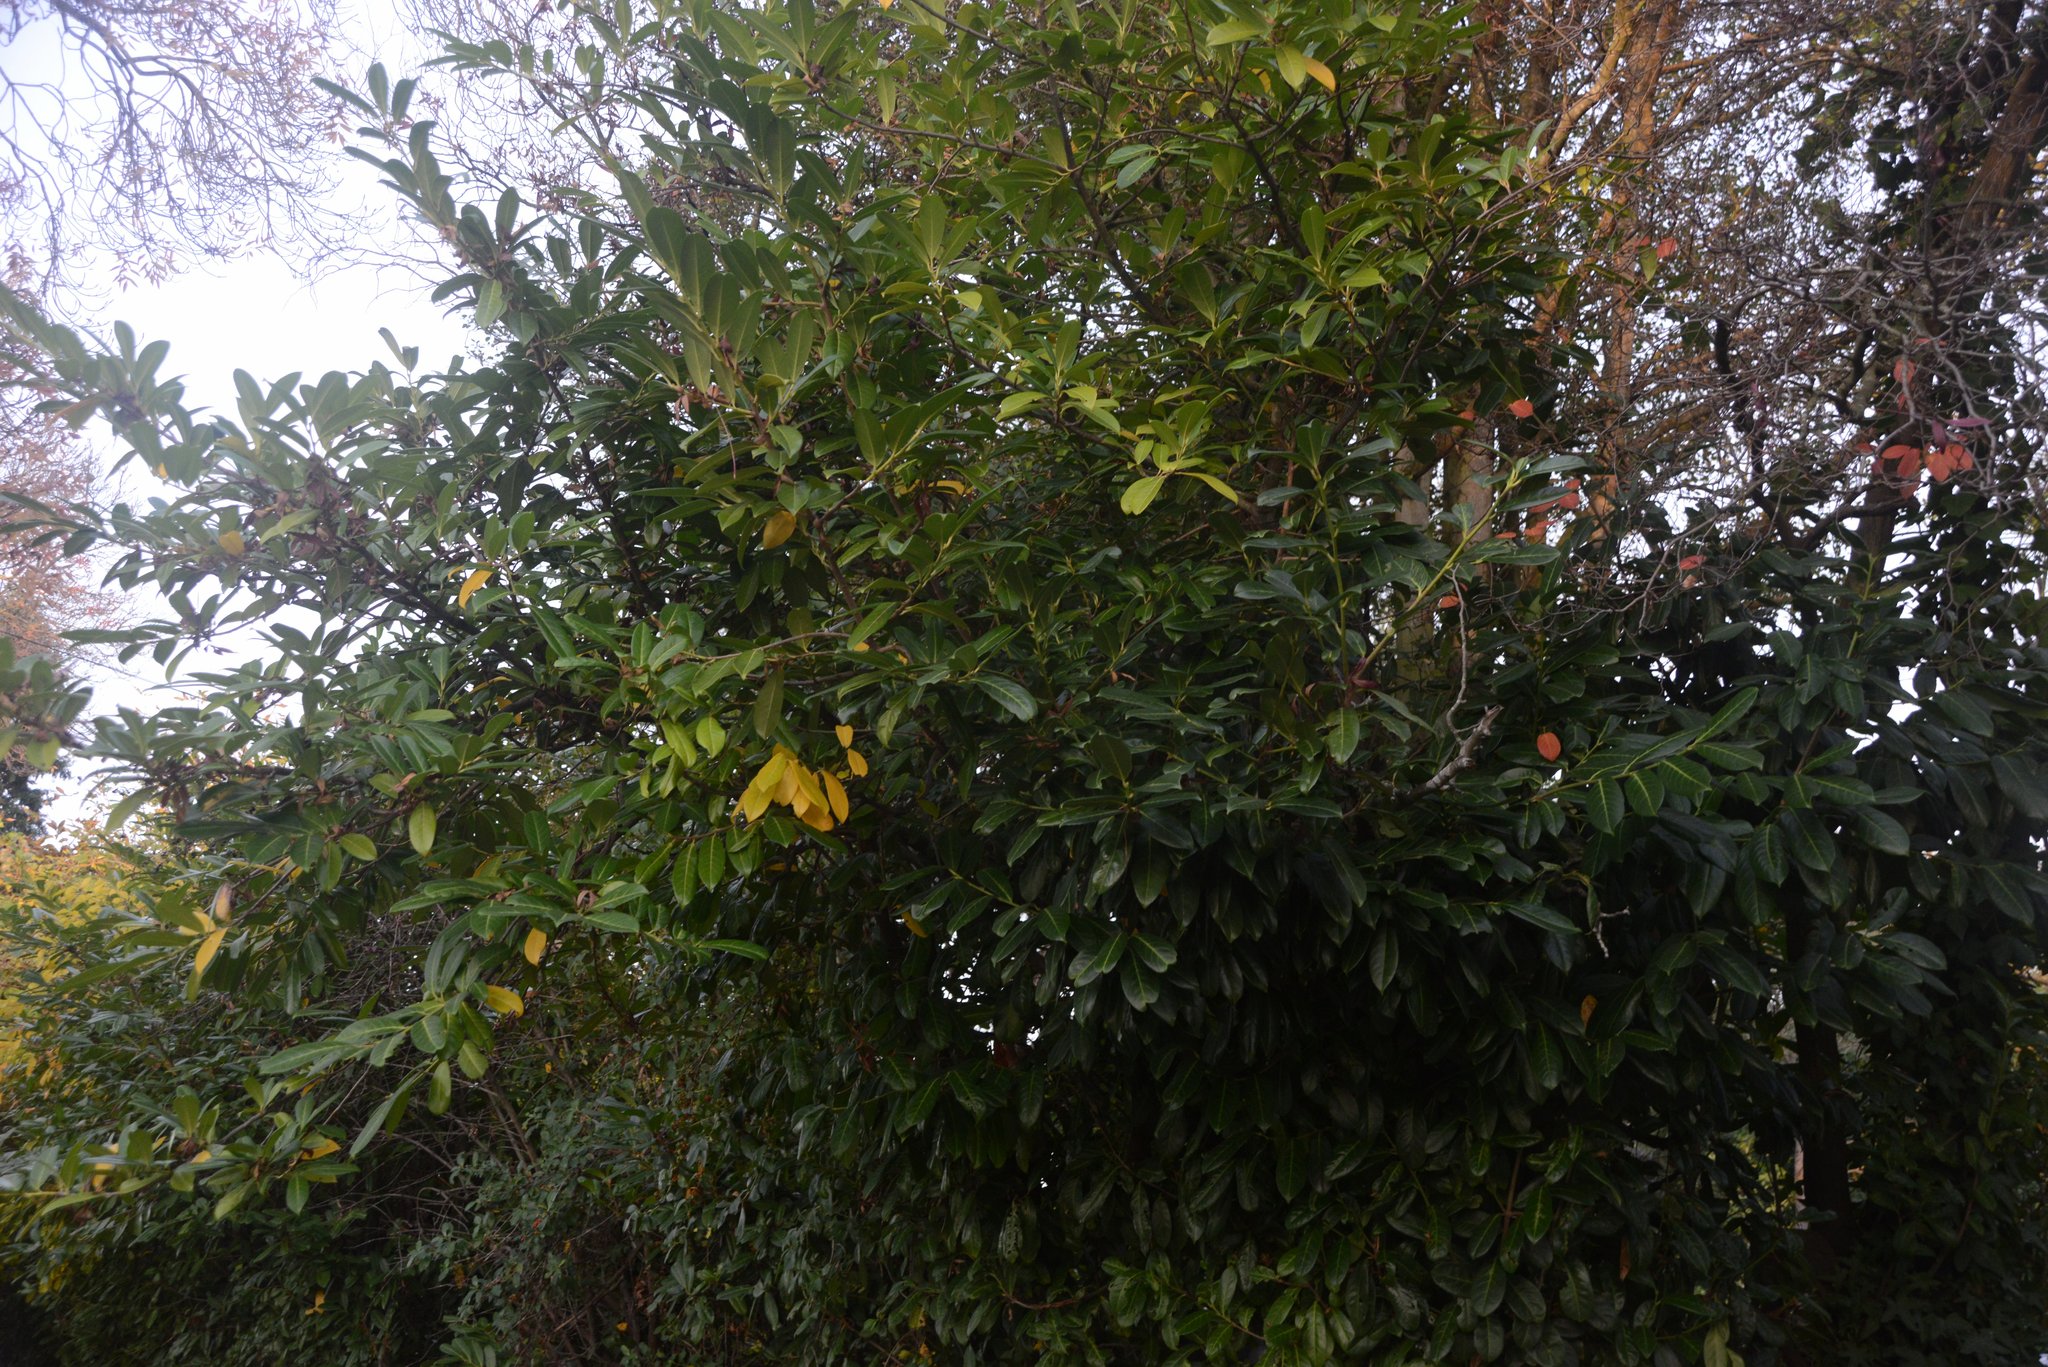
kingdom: Plantae
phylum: Tracheophyta
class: Magnoliopsida
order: Rosales
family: Rosaceae
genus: Prunus
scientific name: Prunus laurocerasus
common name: Cherry laurel
